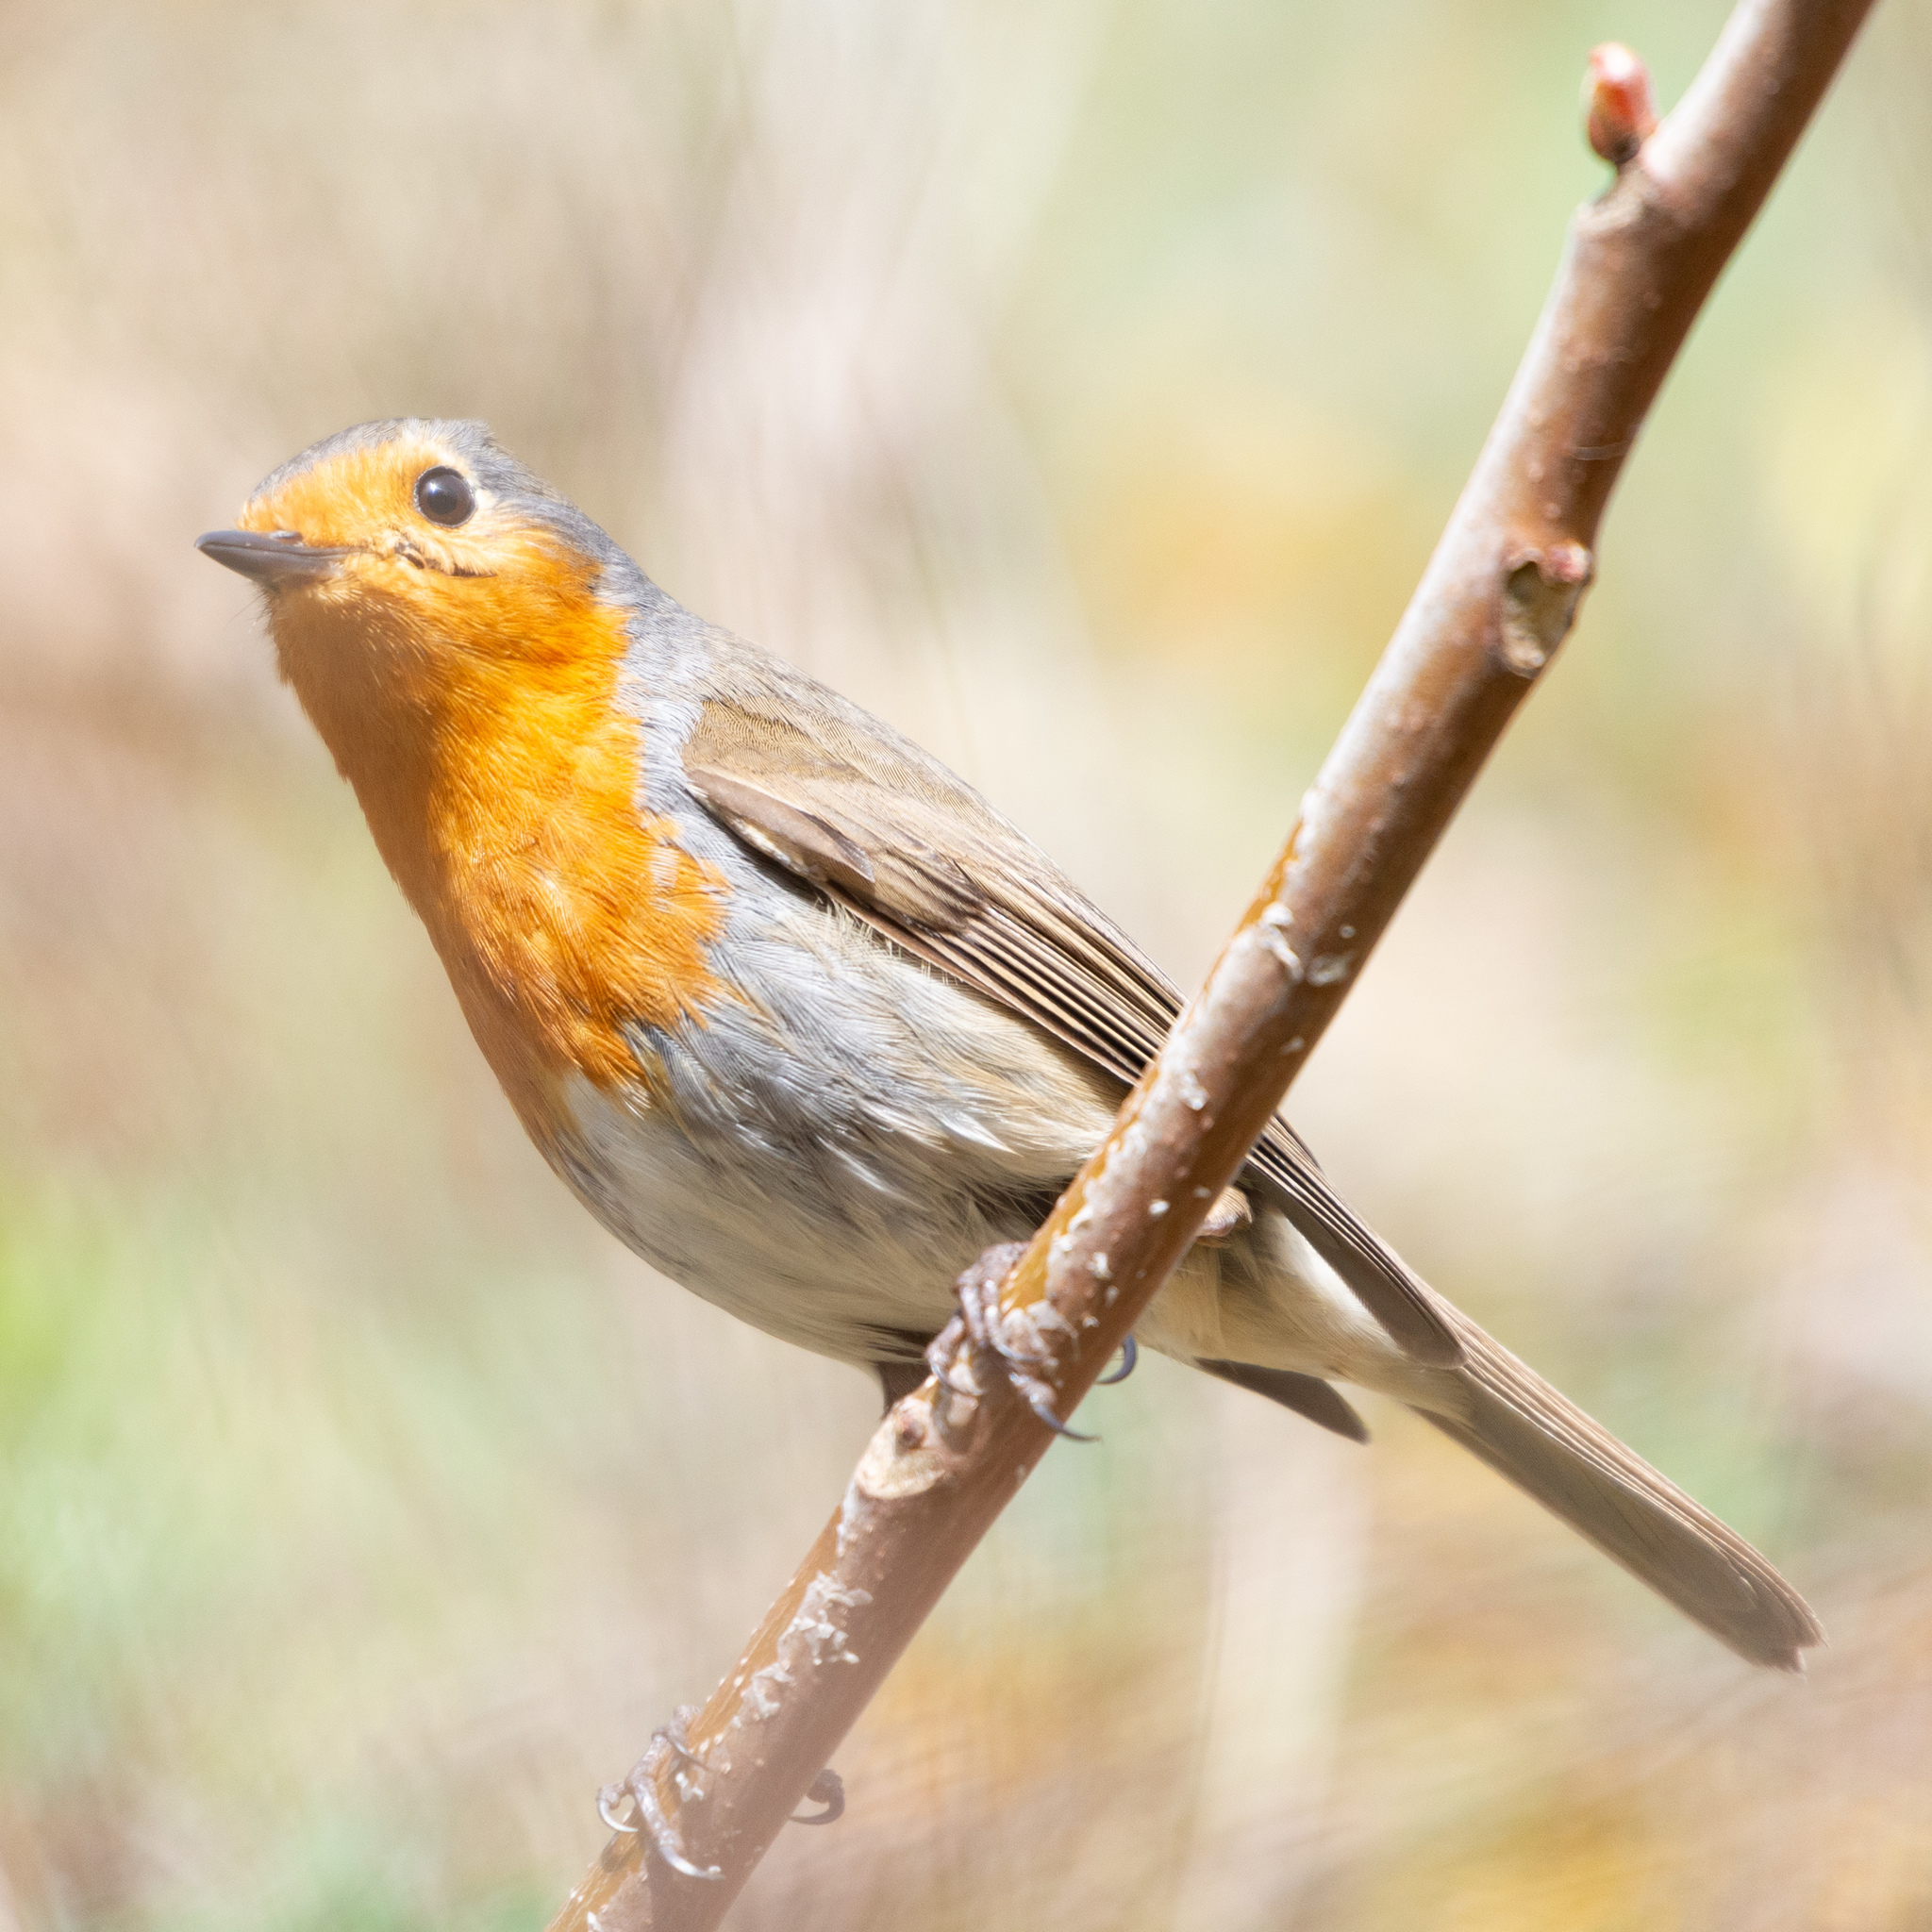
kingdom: Animalia
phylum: Chordata
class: Aves
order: Passeriformes
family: Muscicapidae
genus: Erithacus
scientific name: Erithacus rubecula
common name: European robin
